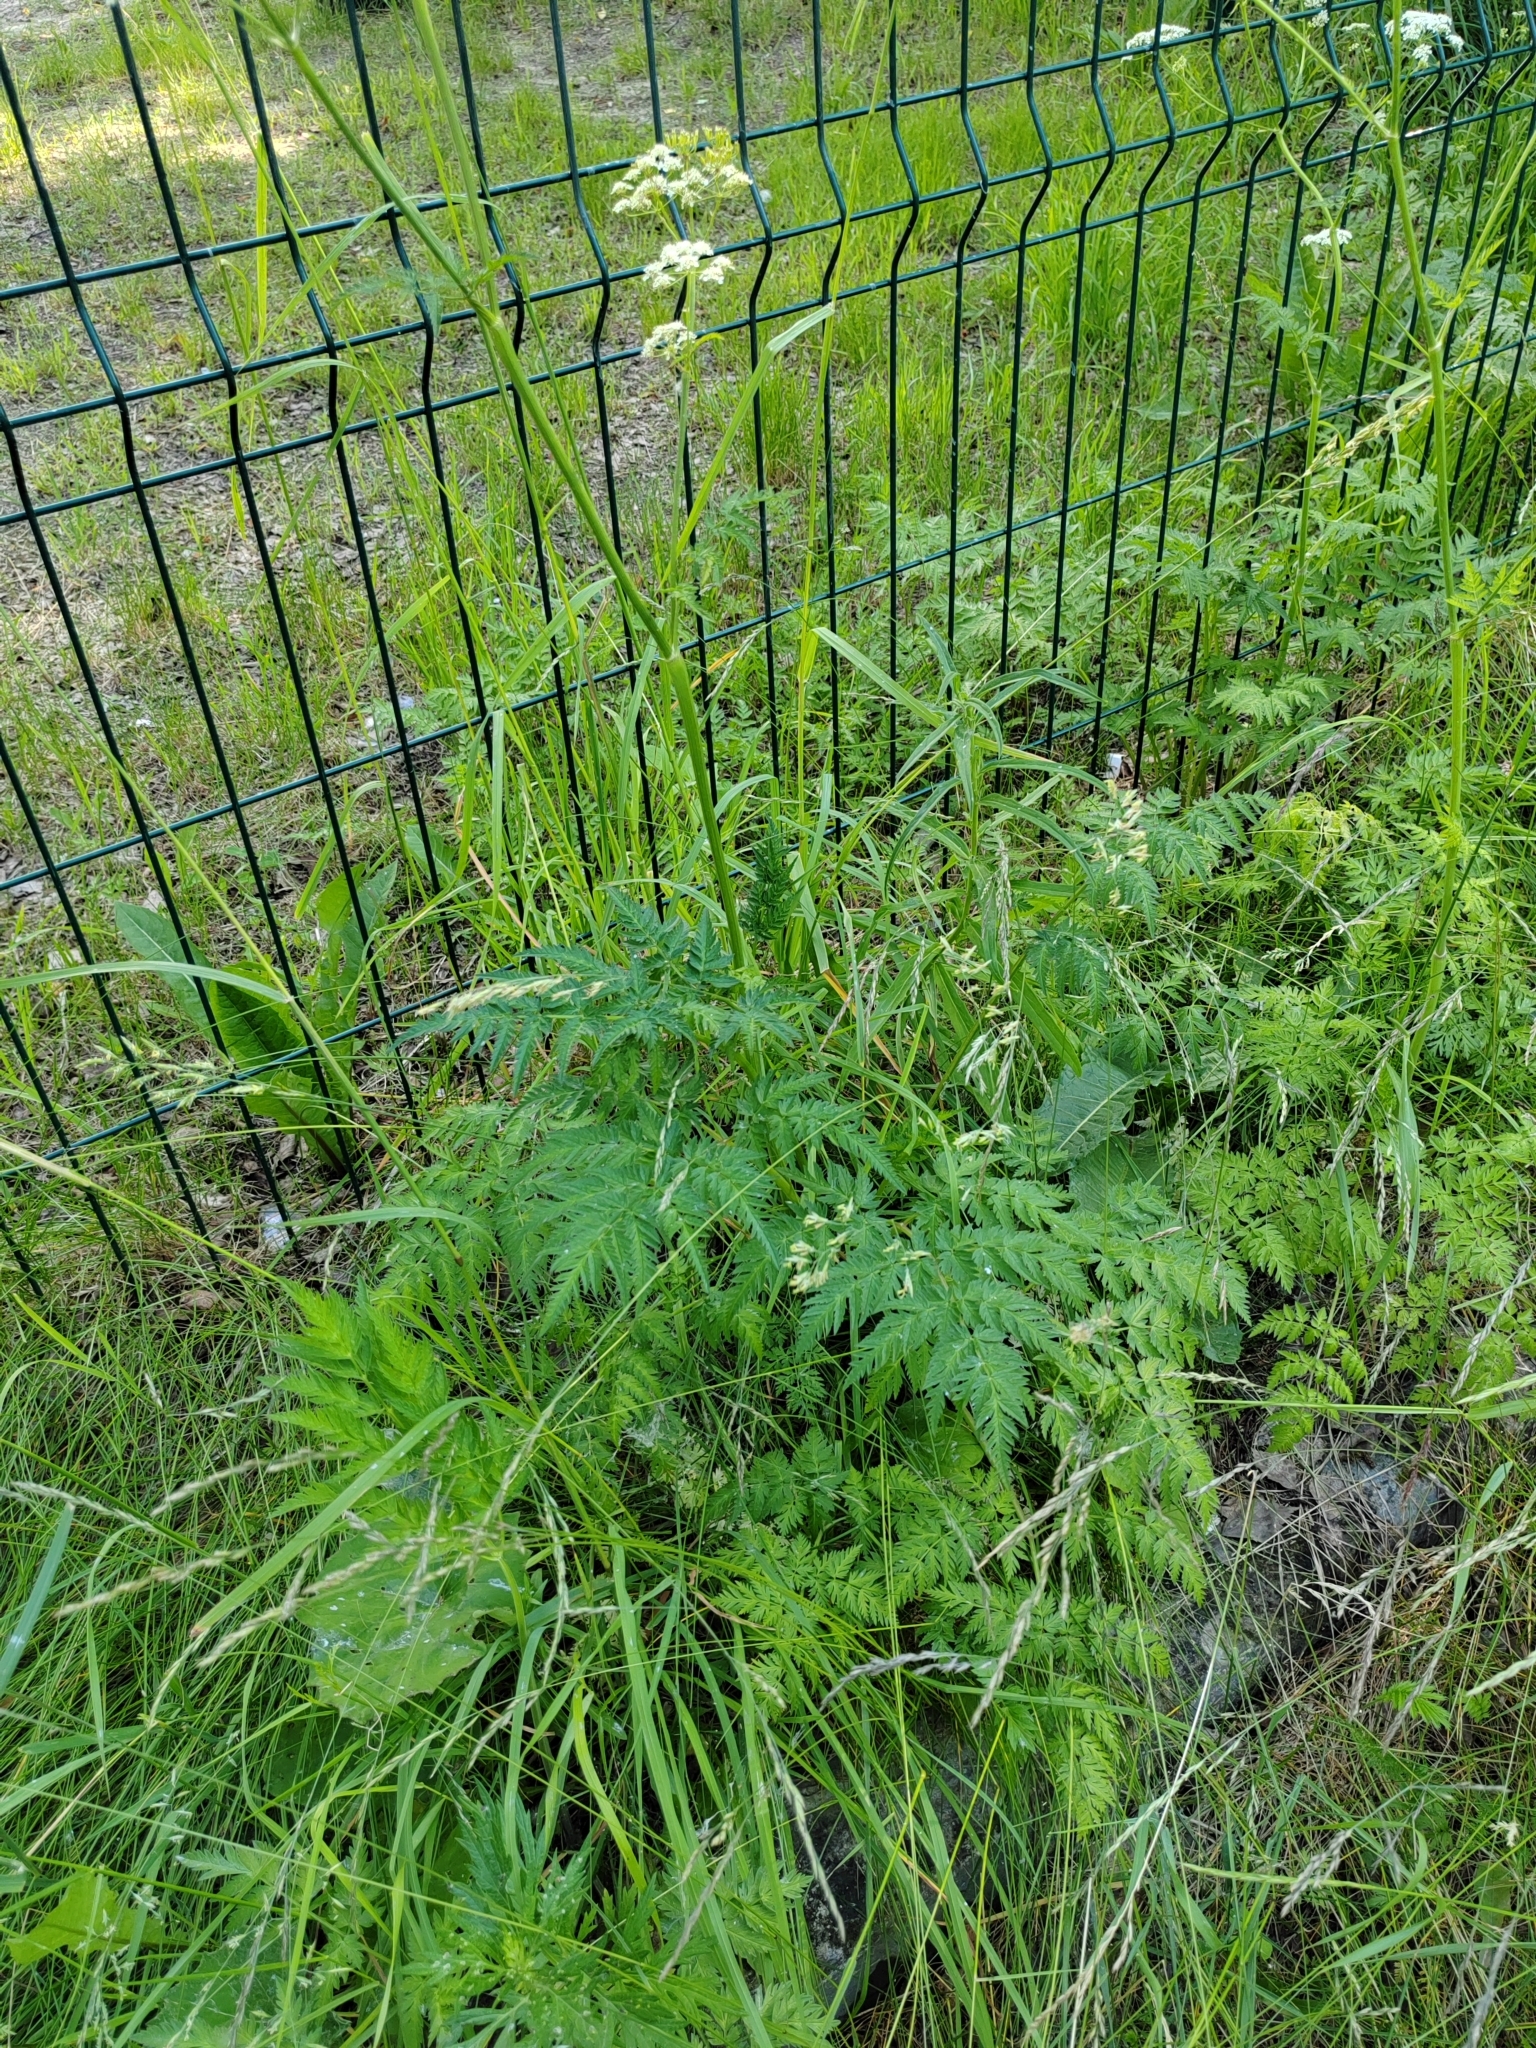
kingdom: Plantae
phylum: Tracheophyta
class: Magnoliopsida
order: Apiales
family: Apiaceae
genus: Anthriscus
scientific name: Anthriscus sylvestris
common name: Cow parsley
